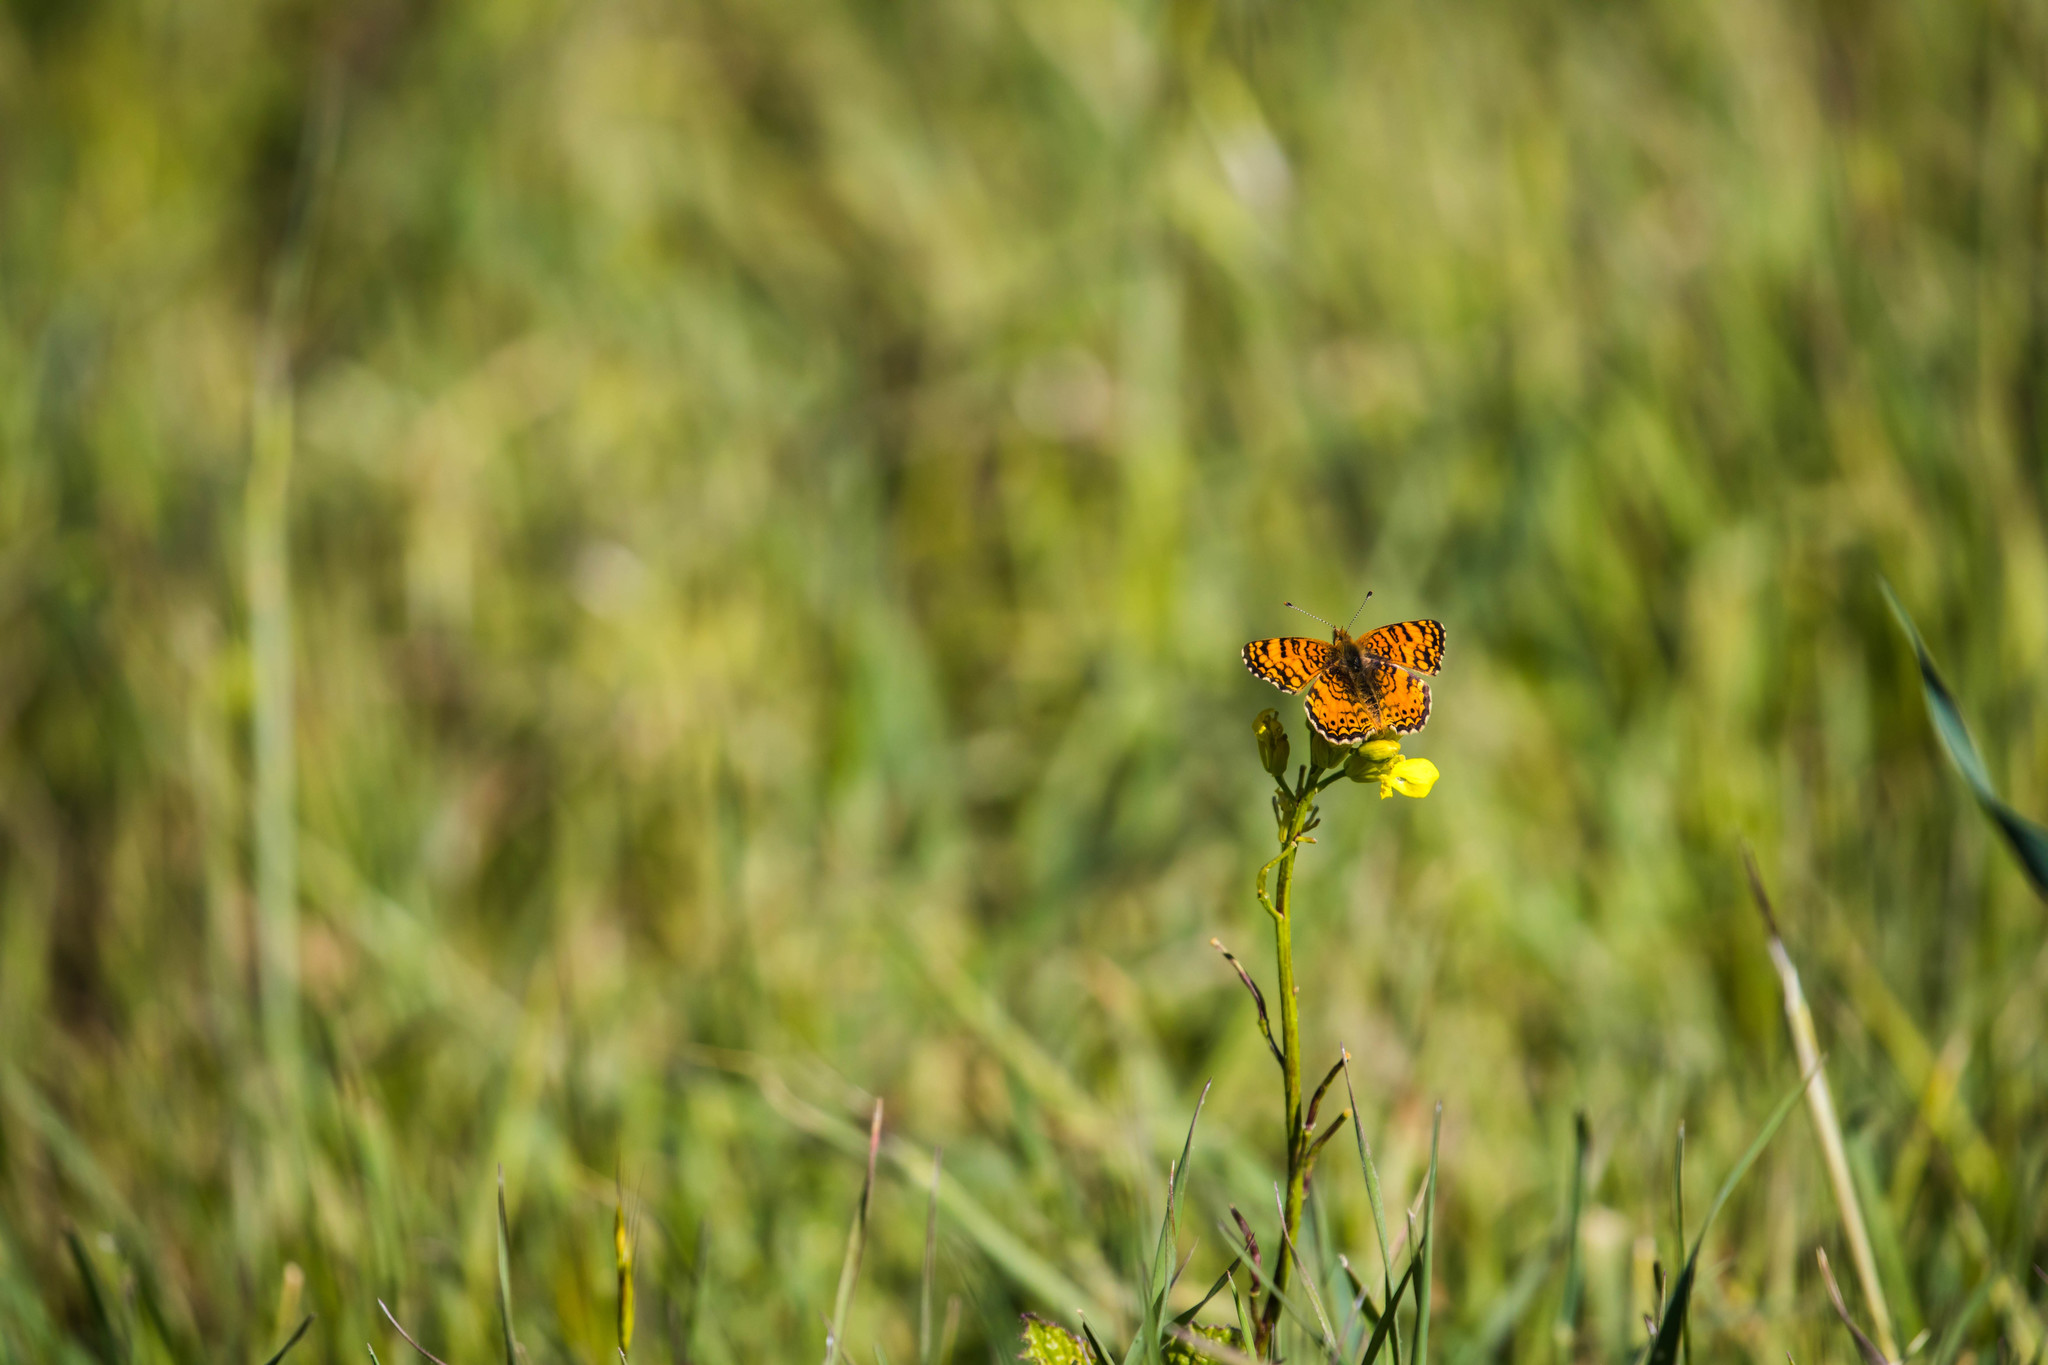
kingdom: Animalia
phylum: Arthropoda
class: Insecta
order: Lepidoptera
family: Nymphalidae
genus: Eresia
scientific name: Eresia aveyrona
